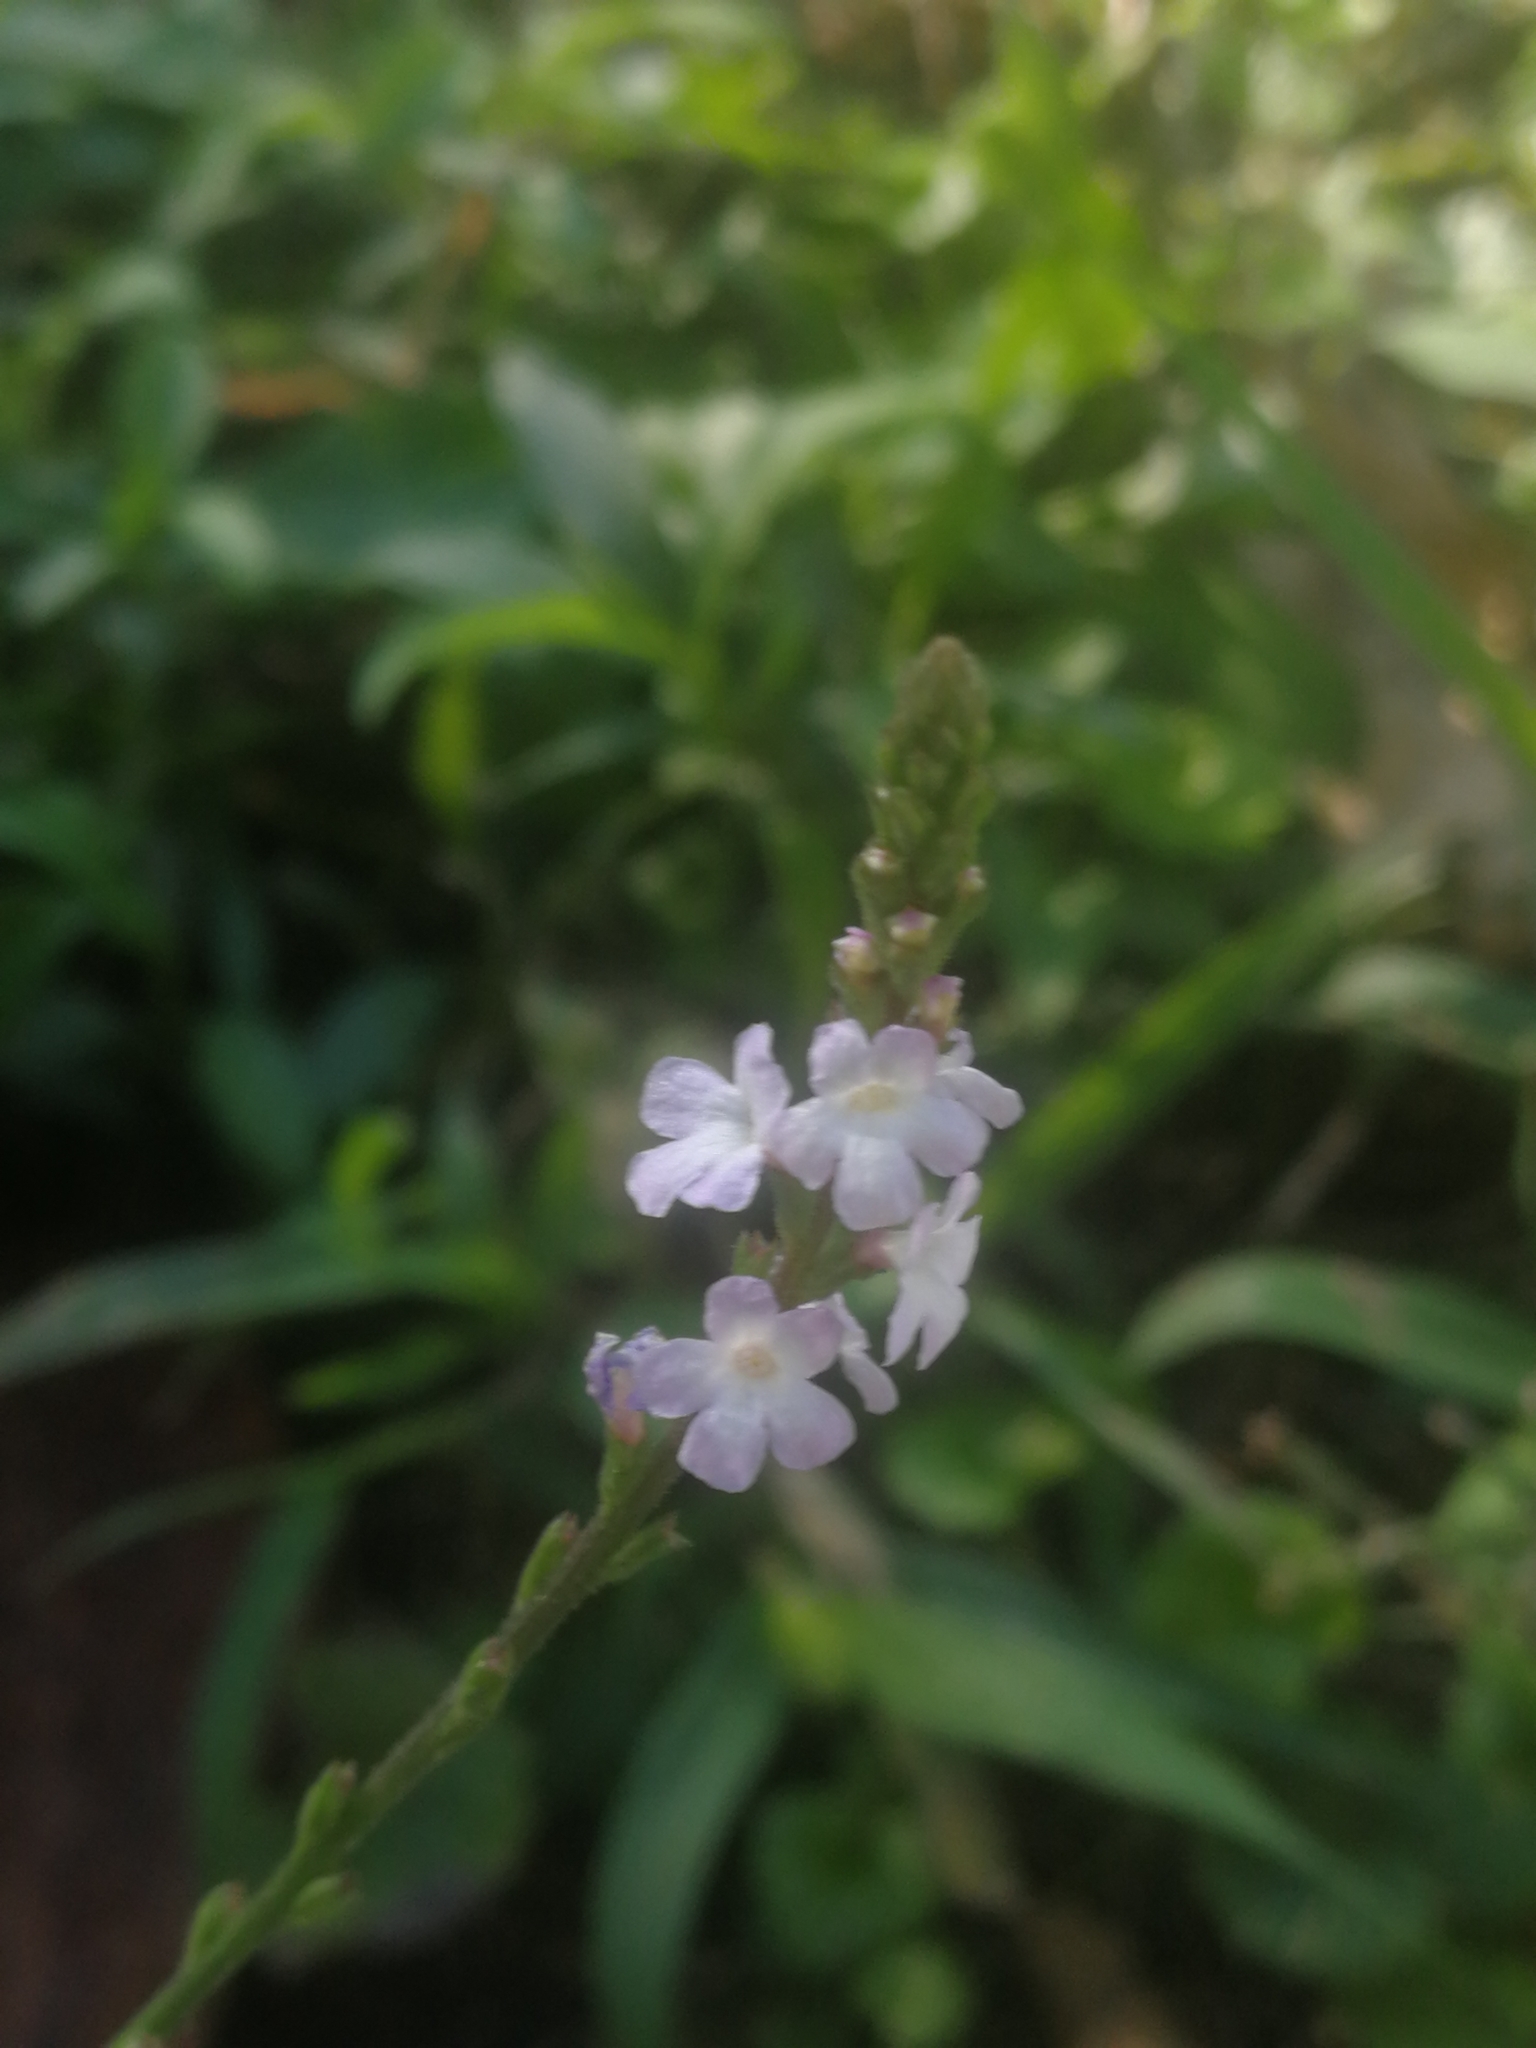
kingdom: Plantae
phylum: Tracheophyta
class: Magnoliopsida
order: Lamiales
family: Verbenaceae
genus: Verbena
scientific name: Verbena officinalis
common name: Vervain
